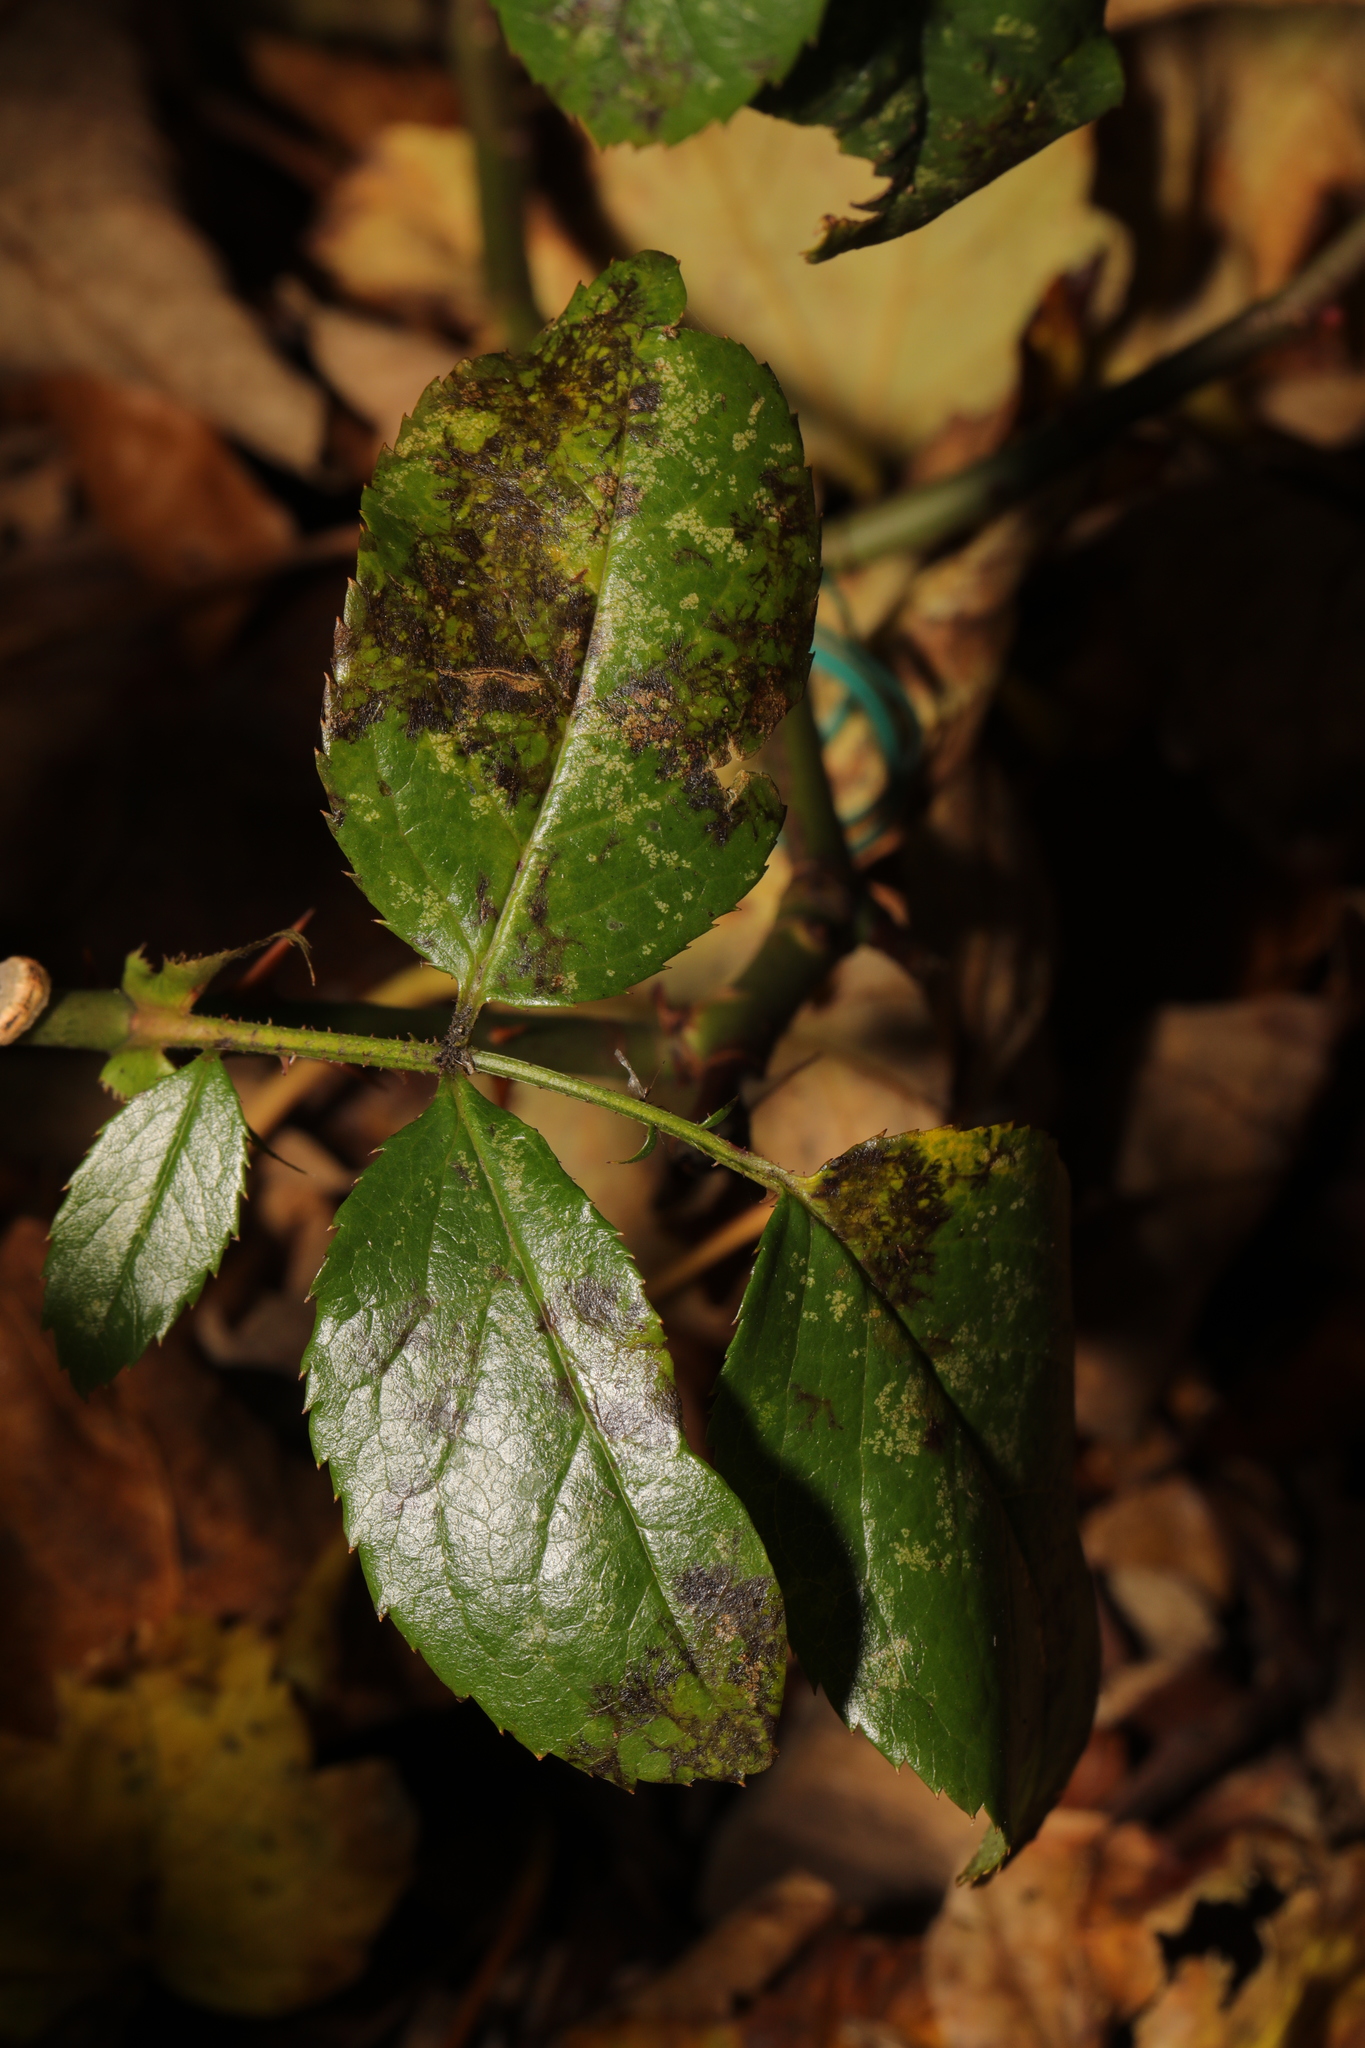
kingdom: Fungi
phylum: Ascomycota
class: Leotiomycetes
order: Helotiales
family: Drepanopezizaceae
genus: Diplocarpon
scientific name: Diplocarpon rosae
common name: Rose black-spot
